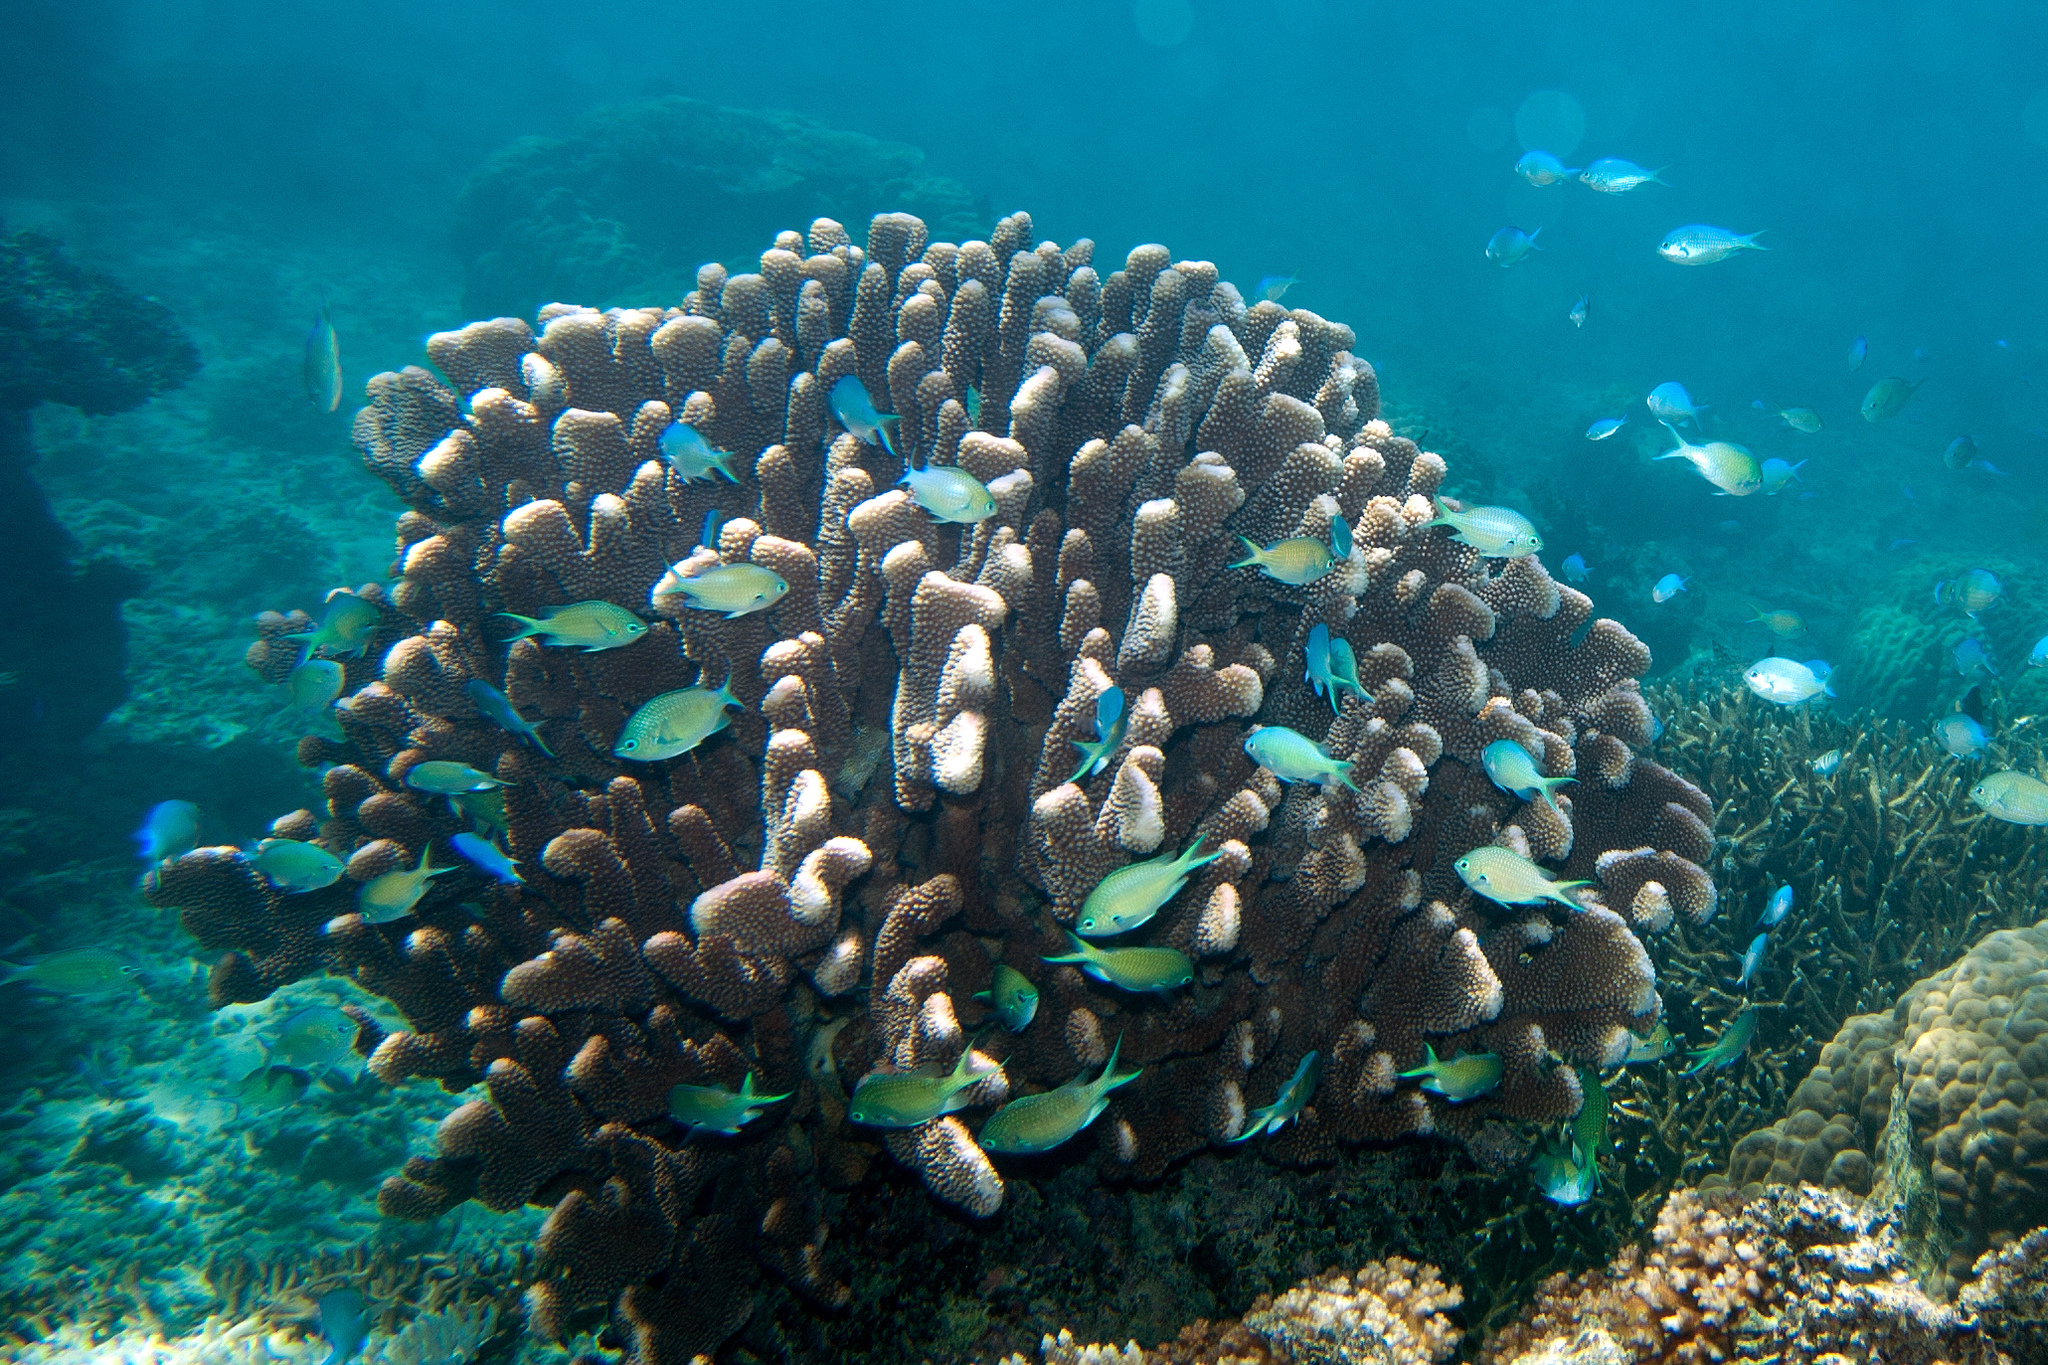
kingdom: Animalia
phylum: Chordata
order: Perciformes
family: Pomacentridae
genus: Chromis
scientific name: Chromis atripectoralis
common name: Black-axil chromis
